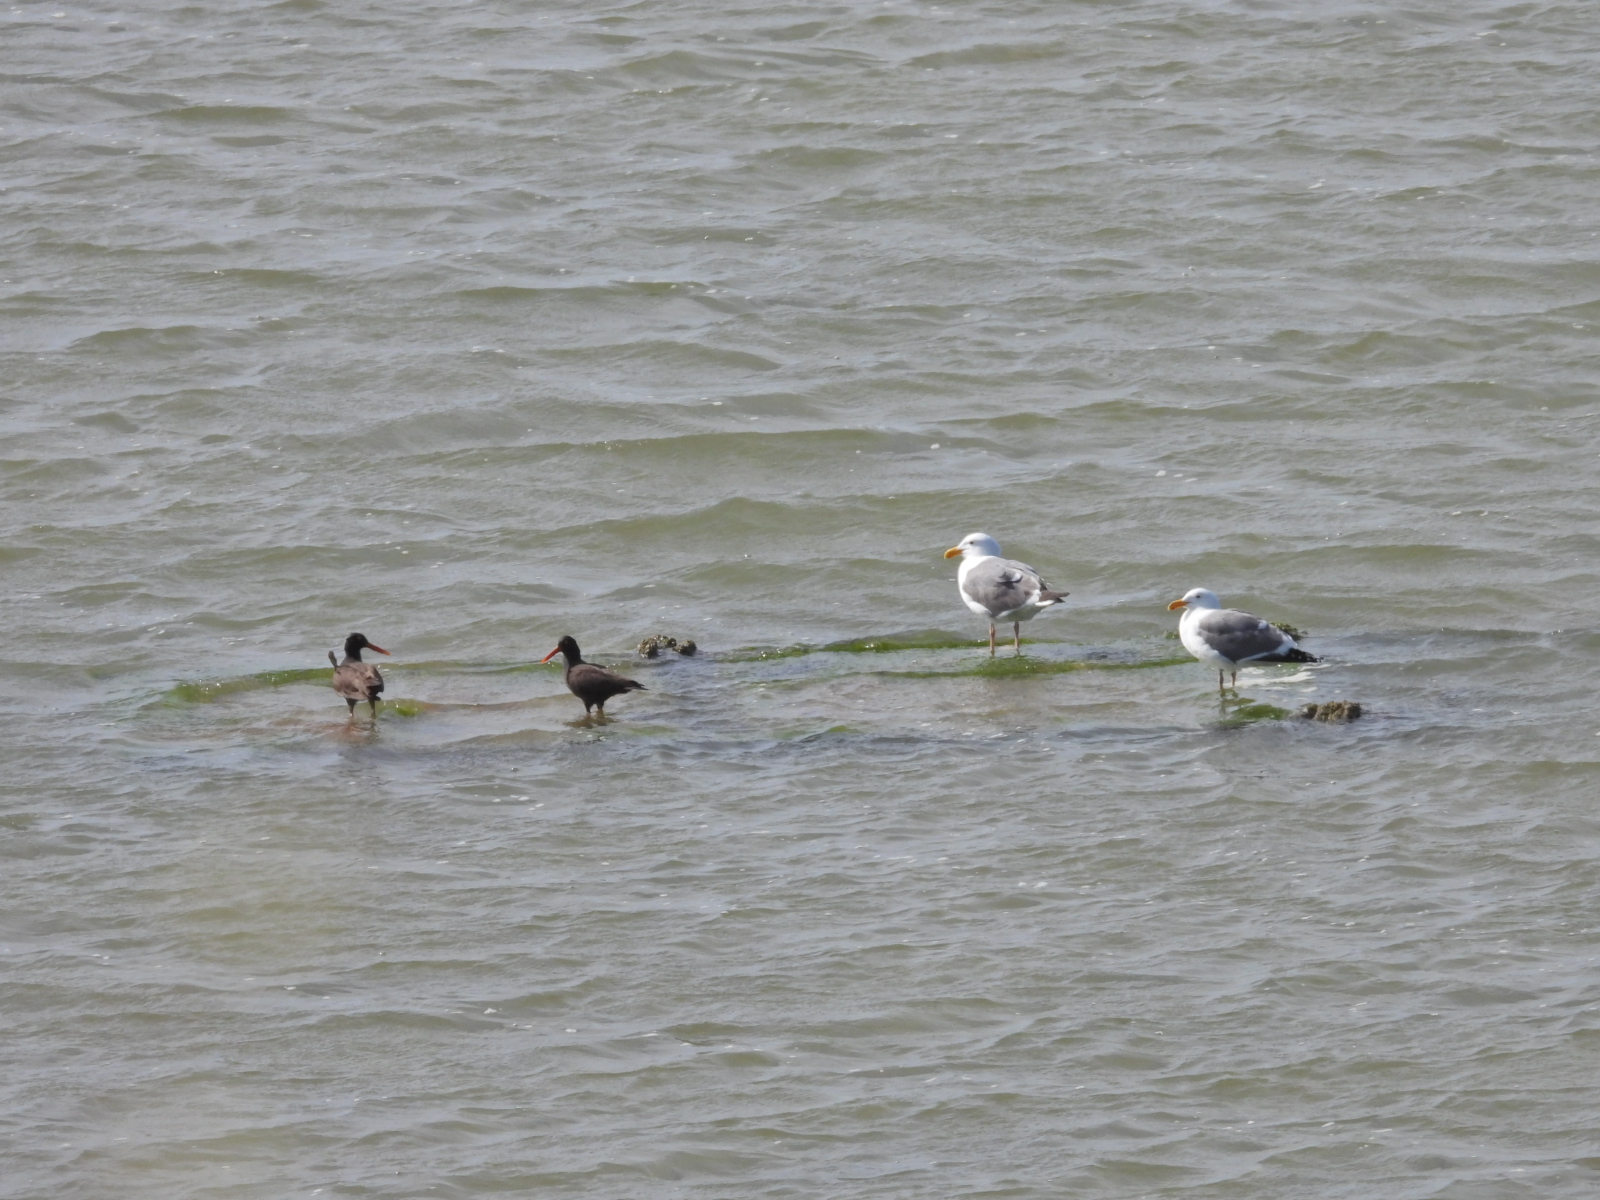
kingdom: Animalia
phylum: Chordata
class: Aves
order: Charadriiformes
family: Haematopodidae
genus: Haematopus
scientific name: Haematopus bachmani
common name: Black oystercatcher
